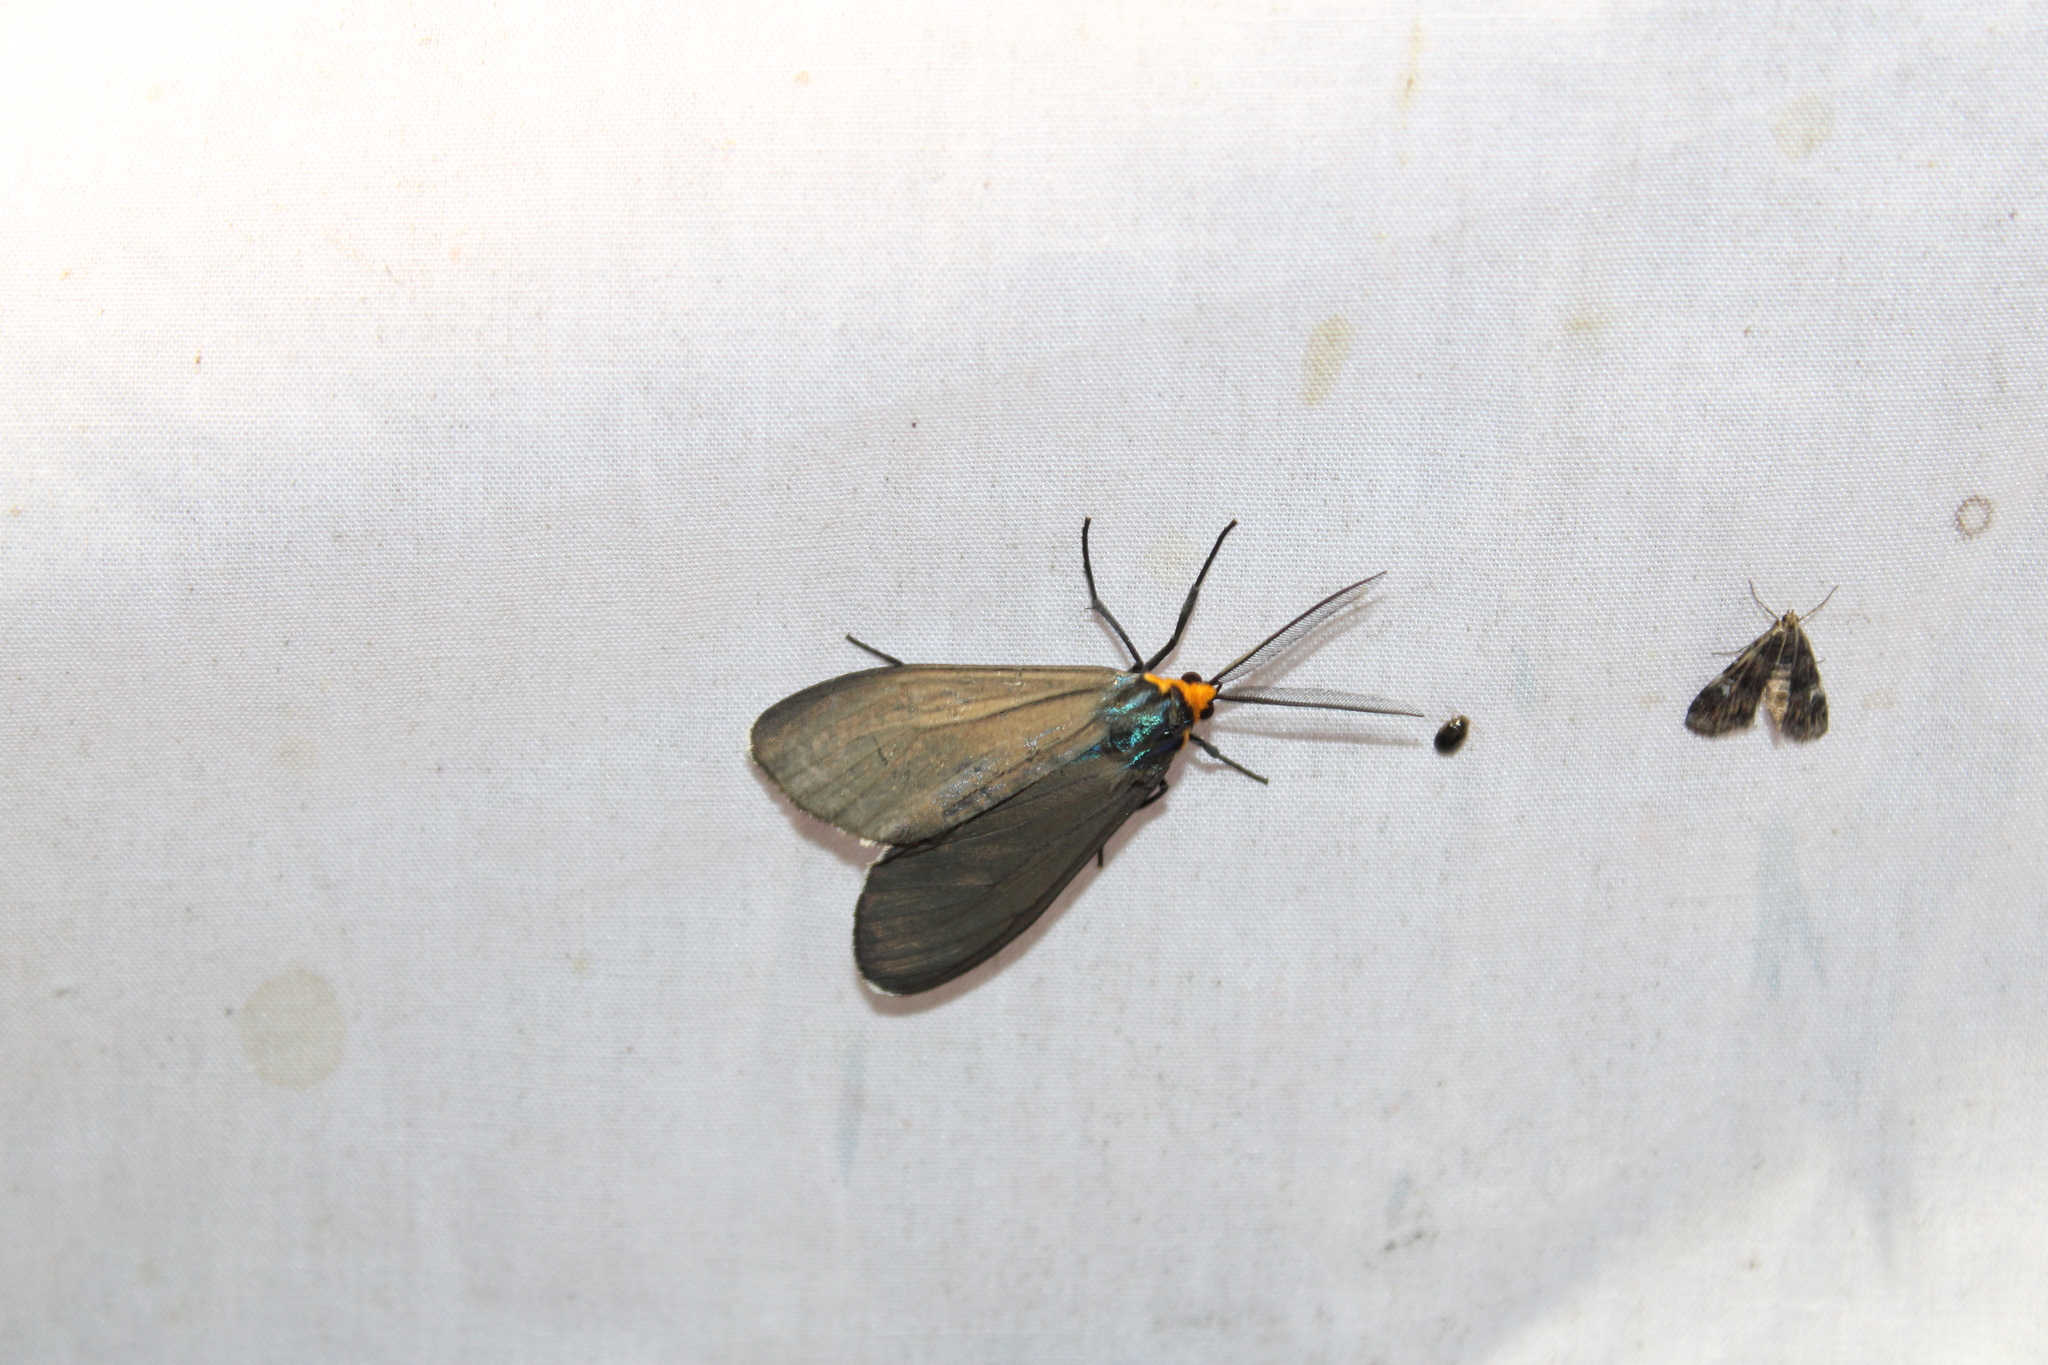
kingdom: Animalia
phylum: Arthropoda
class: Insecta
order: Lepidoptera
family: Erebidae
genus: Ctenucha
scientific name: Ctenucha virginica
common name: Virginia ctenucha moth
